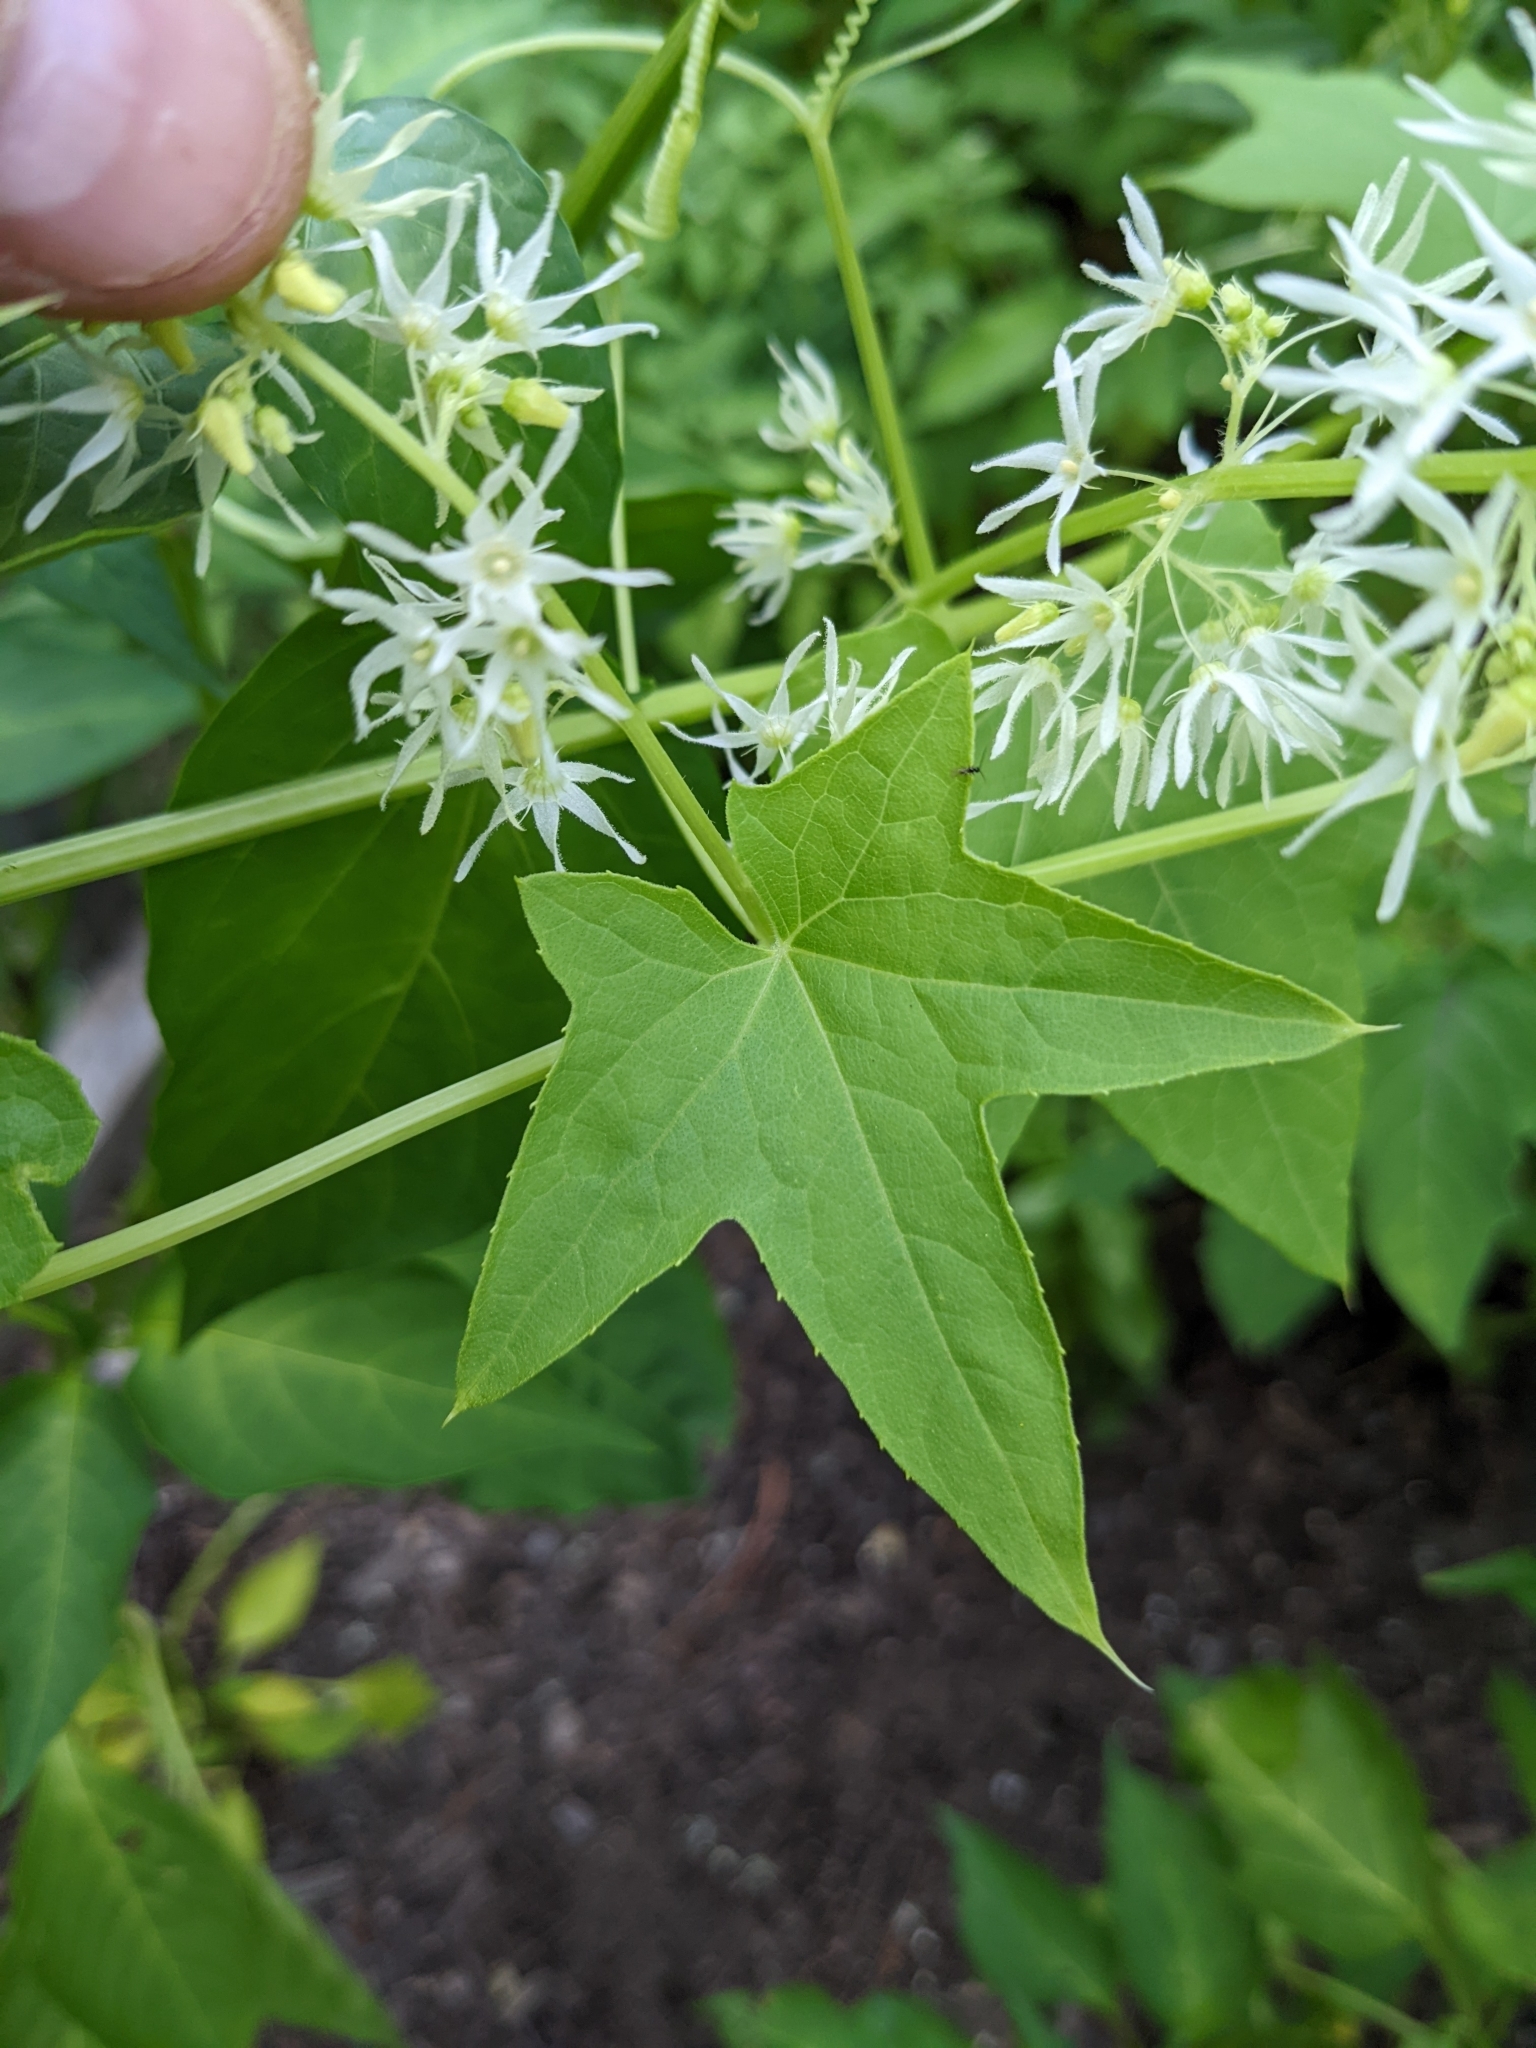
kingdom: Plantae
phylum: Tracheophyta
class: Magnoliopsida
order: Cucurbitales
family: Cucurbitaceae
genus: Echinocystis
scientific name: Echinocystis lobata
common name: Wild cucumber
